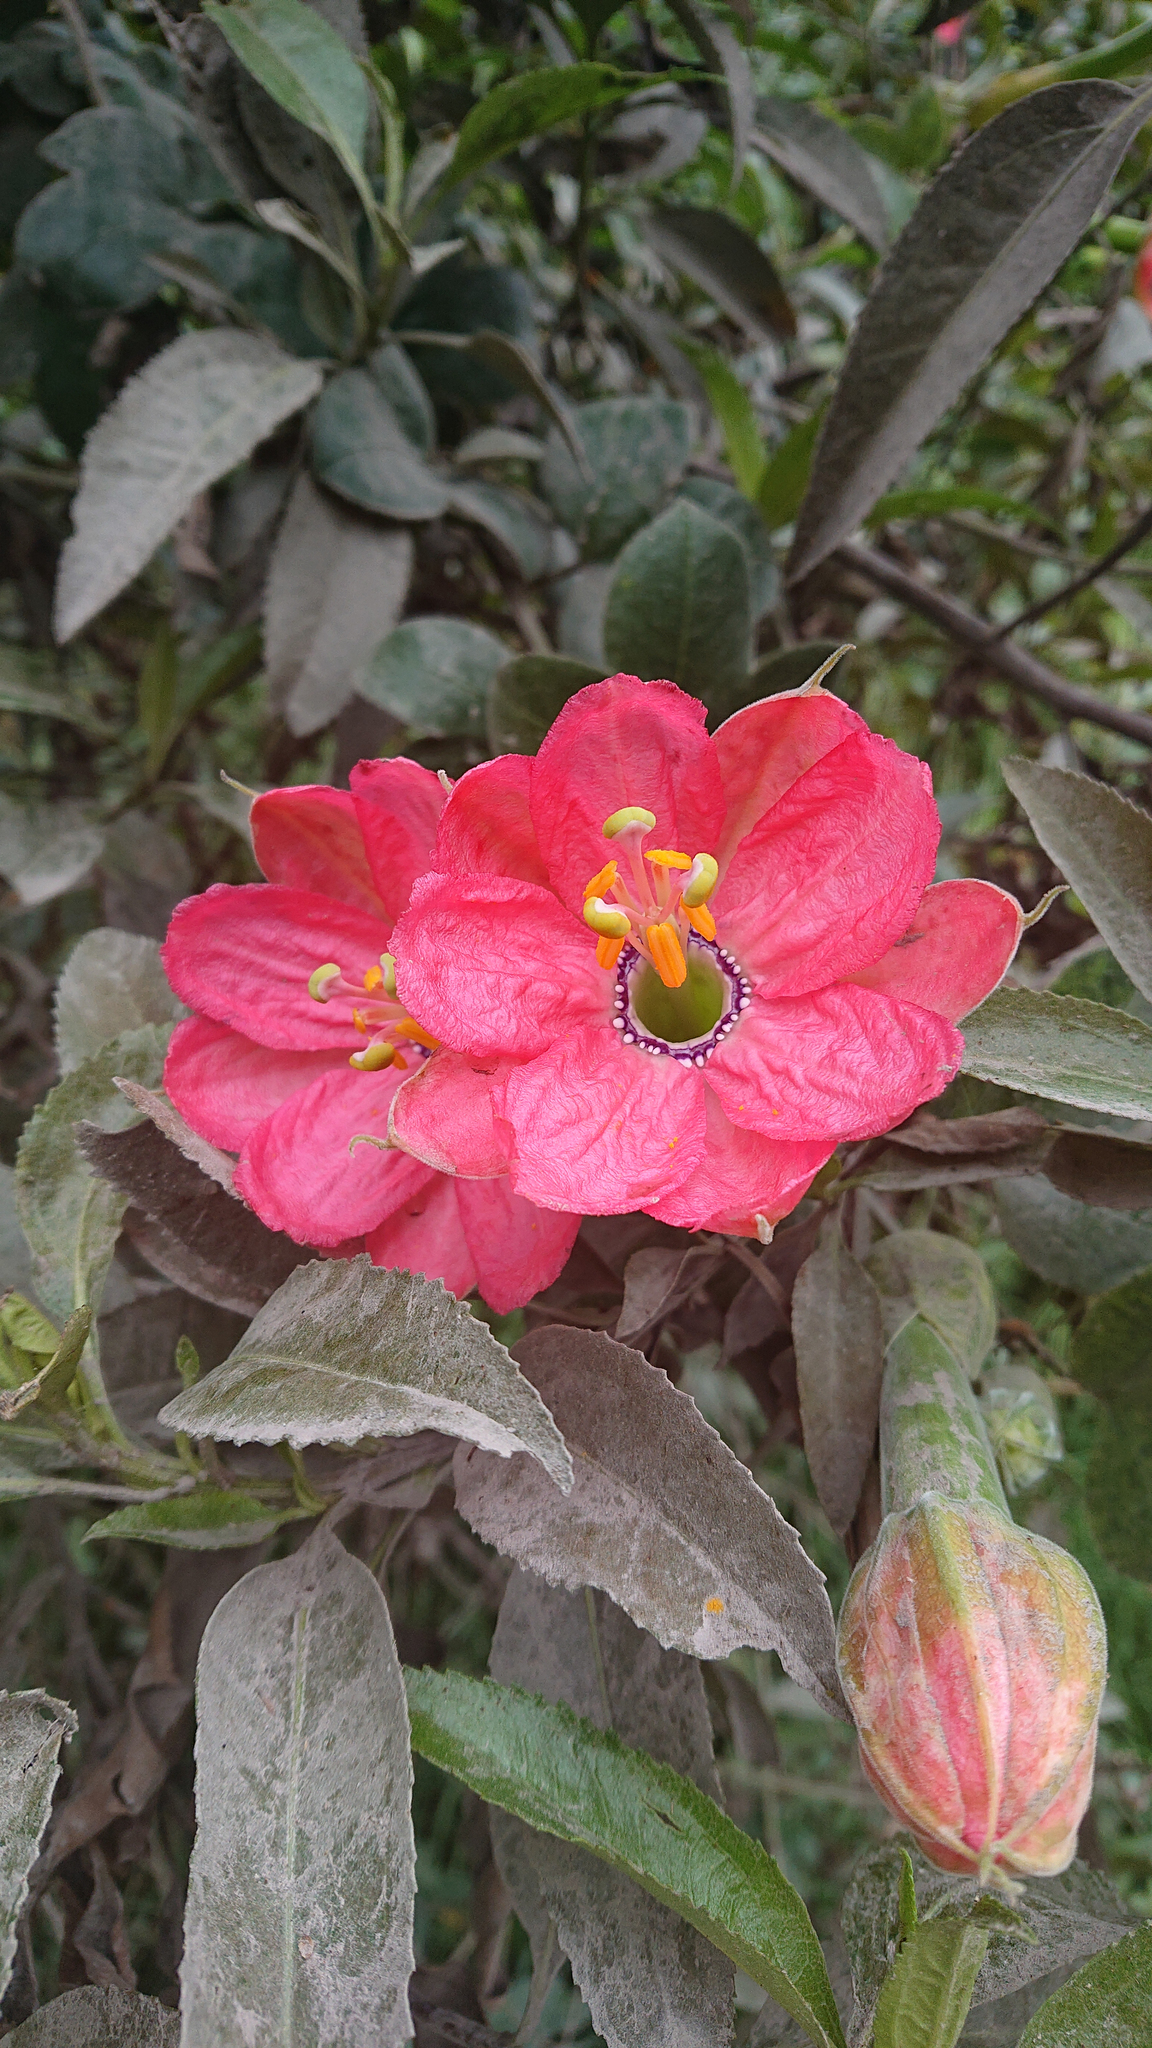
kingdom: Plantae
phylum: Tracheophyta
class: Magnoliopsida
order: Malpighiales
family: Passifloraceae
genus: Passiflora
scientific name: Passiflora mixta
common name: Passion flower
